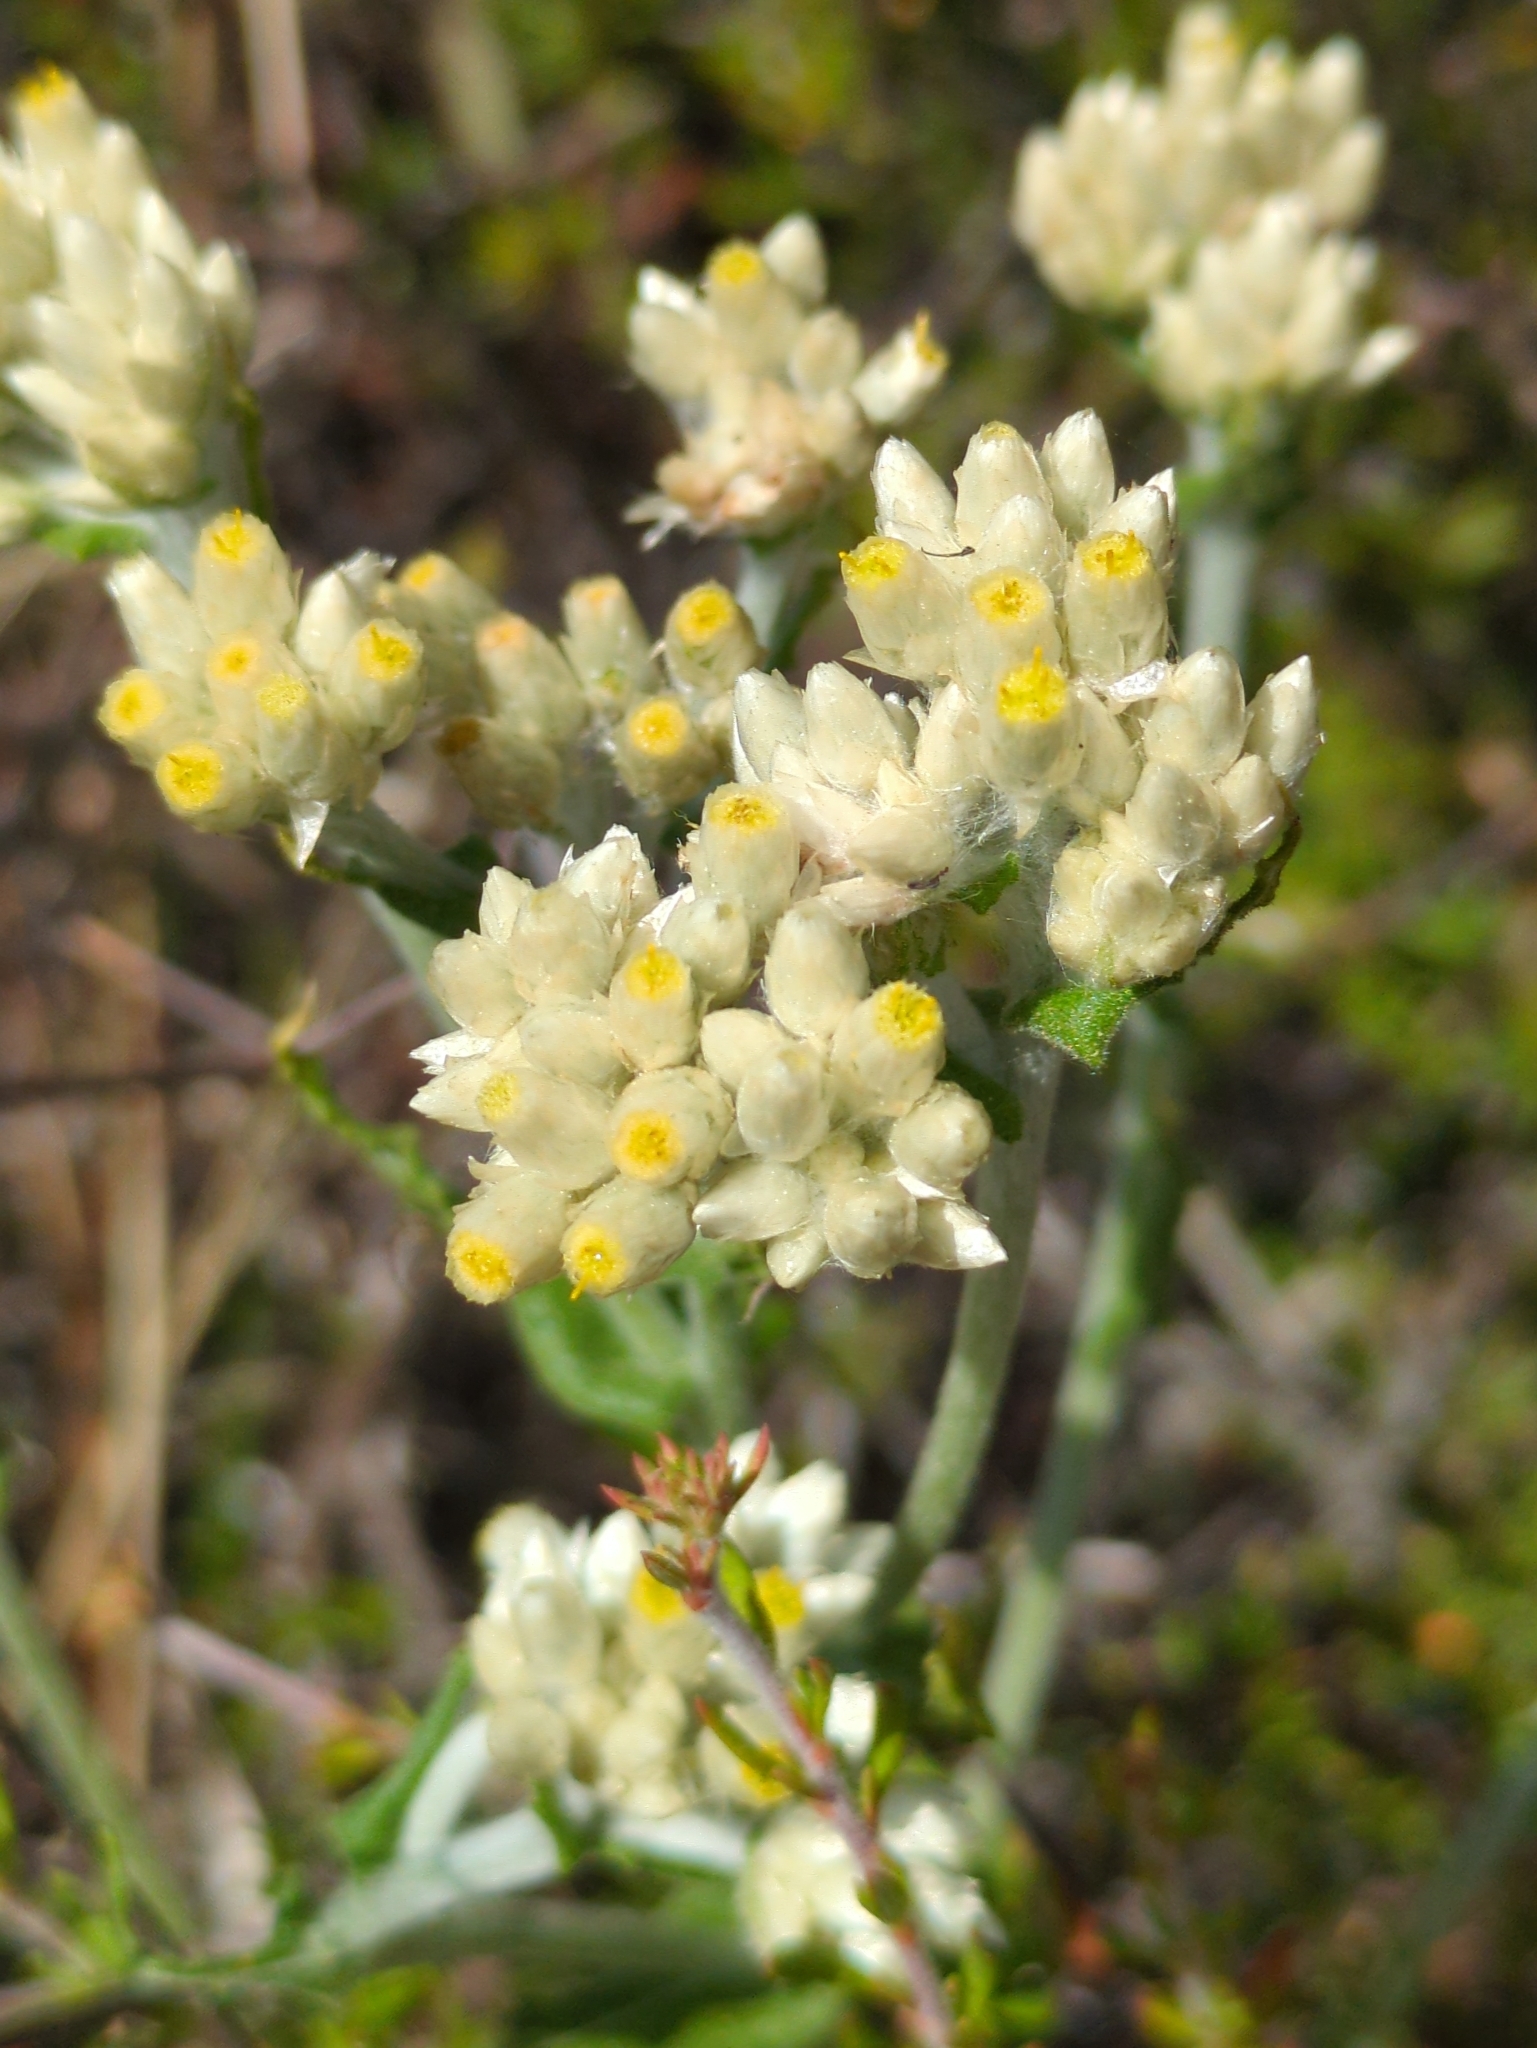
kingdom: Plantae
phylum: Tracheophyta
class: Magnoliopsida
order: Asterales
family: Asteraceae
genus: Pseudognaphalium
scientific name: Pseudognaphalium biolettii
